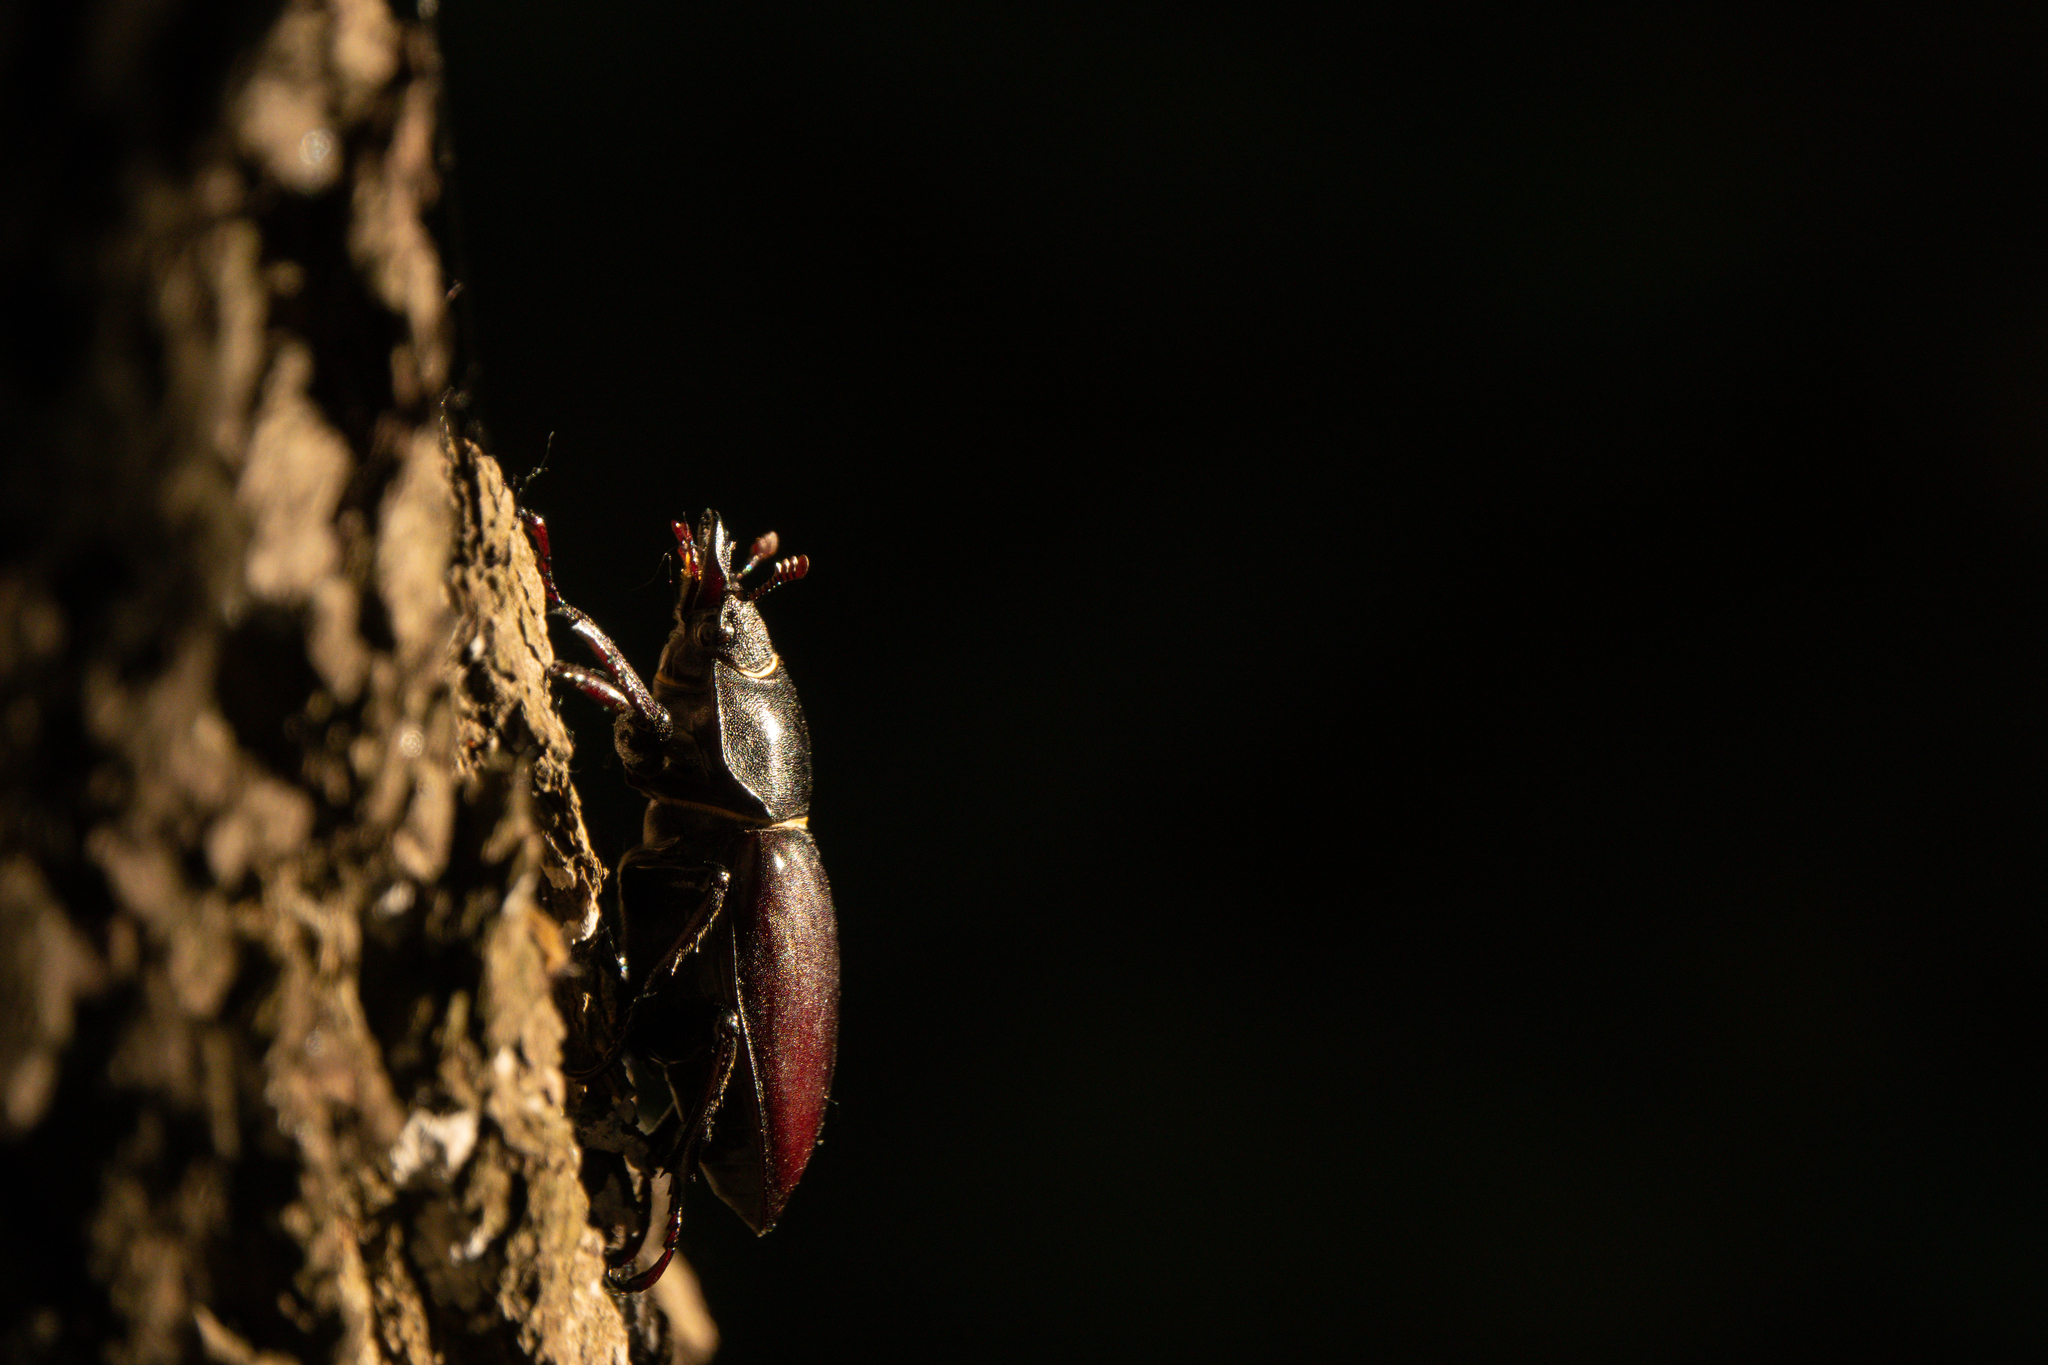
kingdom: Animalia
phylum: Arthropoda
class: Insecta
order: Coleoptera
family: Lucanidae
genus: Lucanus
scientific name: Lucanus cervus
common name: Stag beetle
